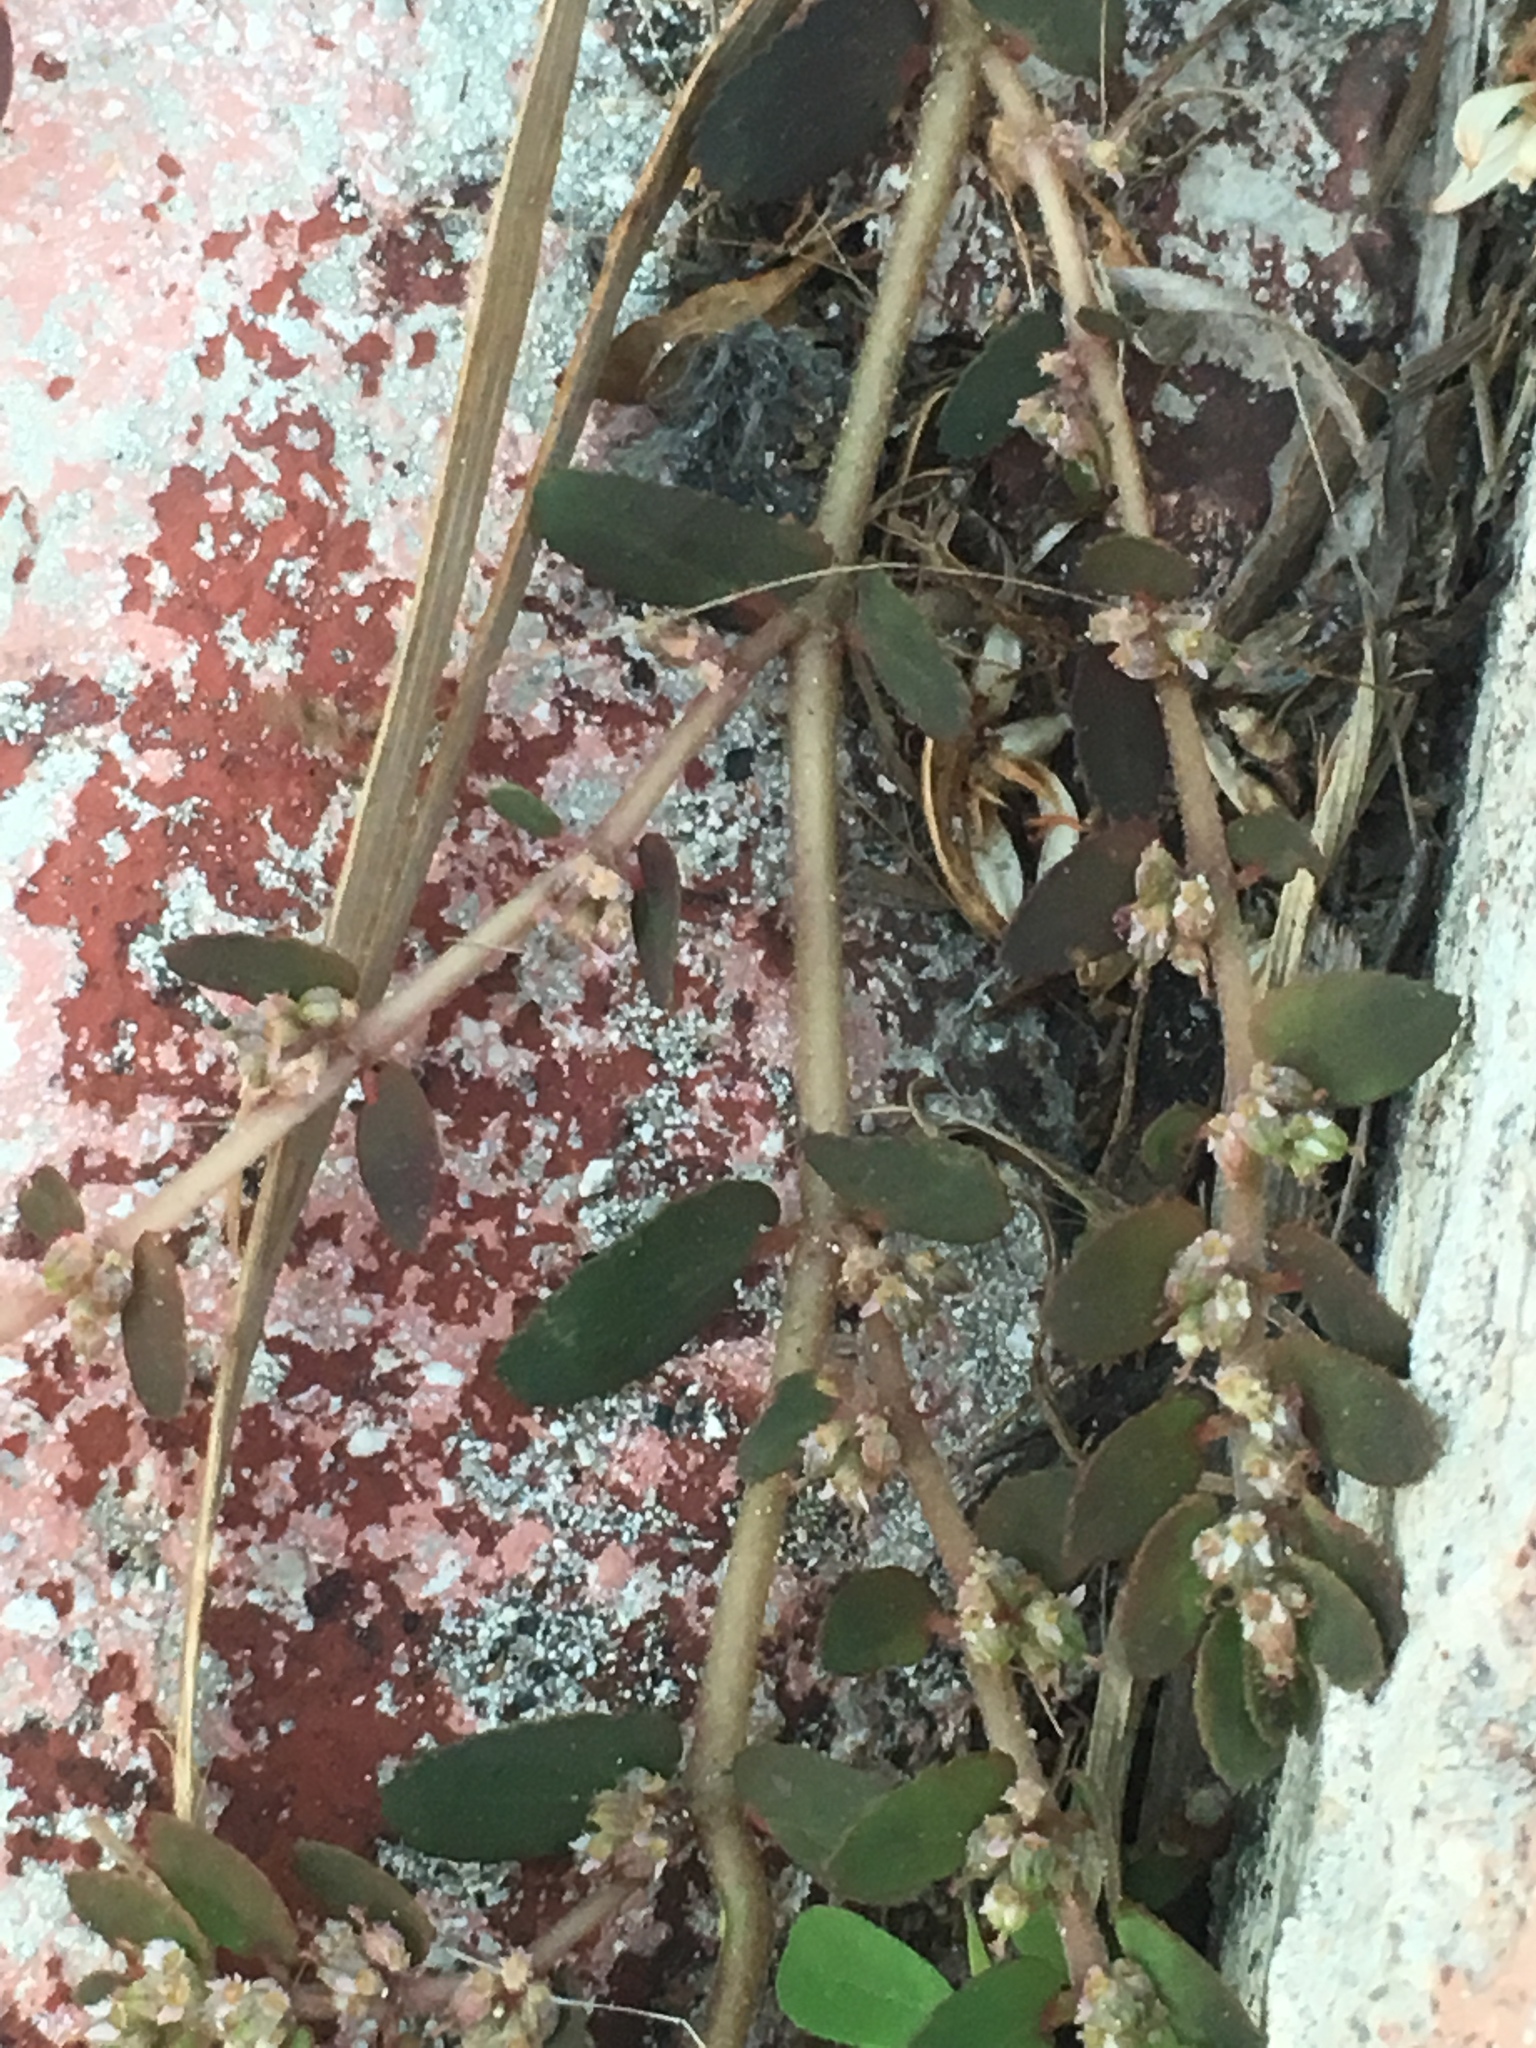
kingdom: Plantae
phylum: Tracheophyta
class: Magnoliopsida
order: Malpighiales
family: Euphorbiaceae
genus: Euphorbia
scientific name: Euphorbia dioeca
